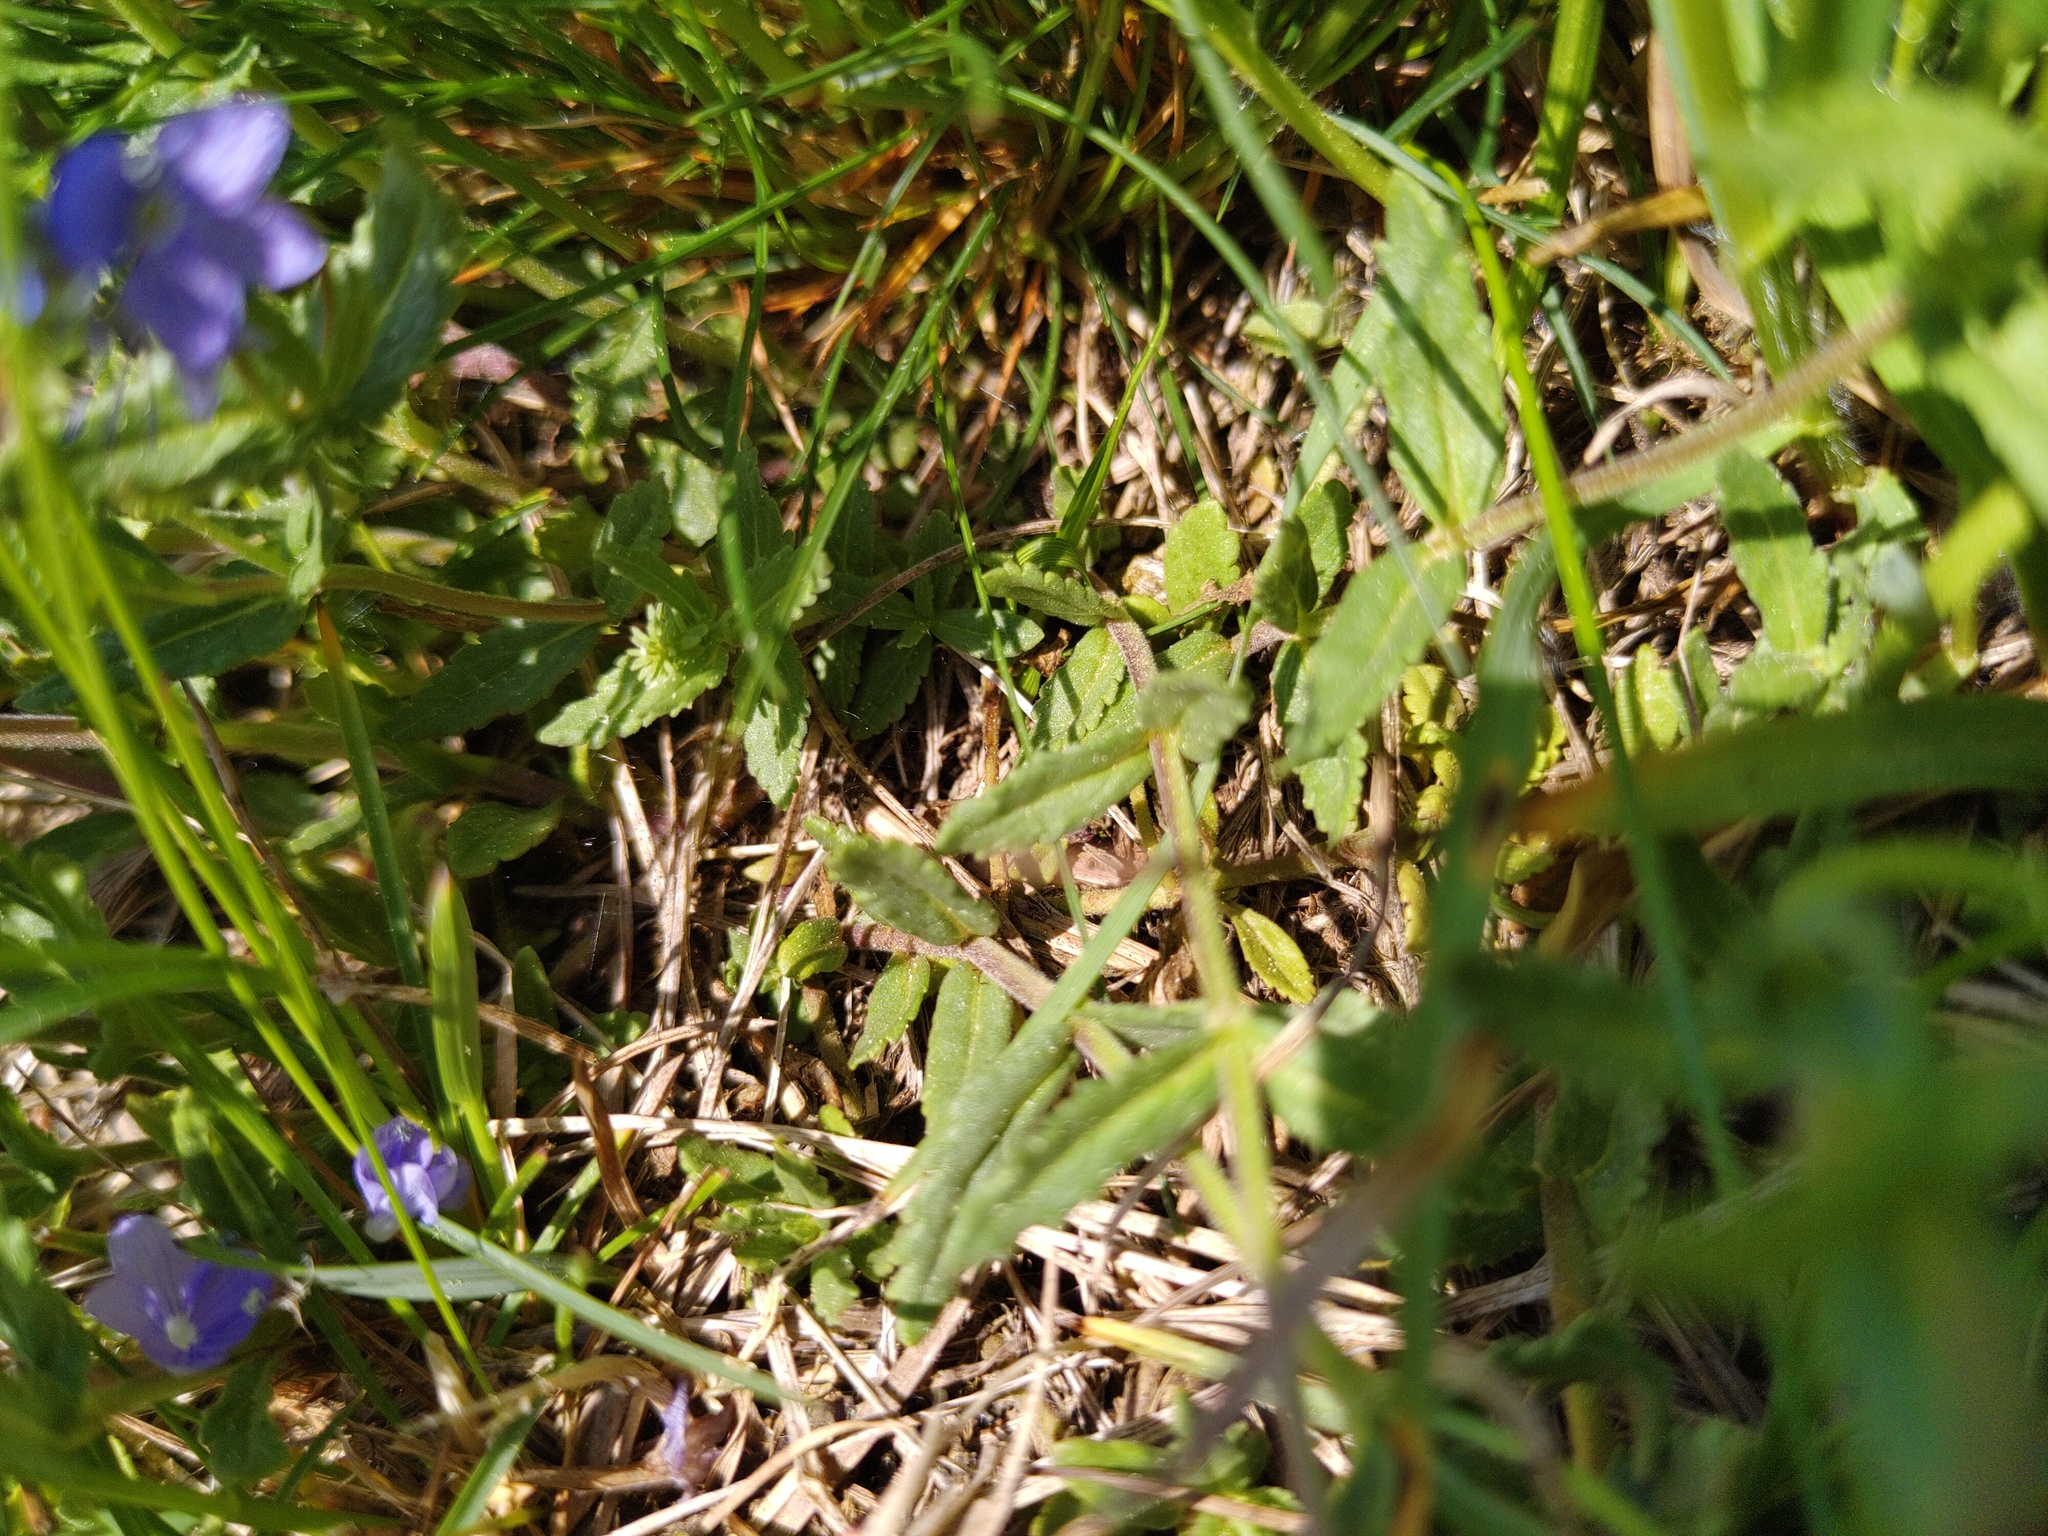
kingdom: Plantae
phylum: Tracheophyta
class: Magnoliopsida
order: Lamiales
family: Plantaginaceae
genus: Veronica
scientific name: Veronica prostrata
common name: Prostrate speedwell
